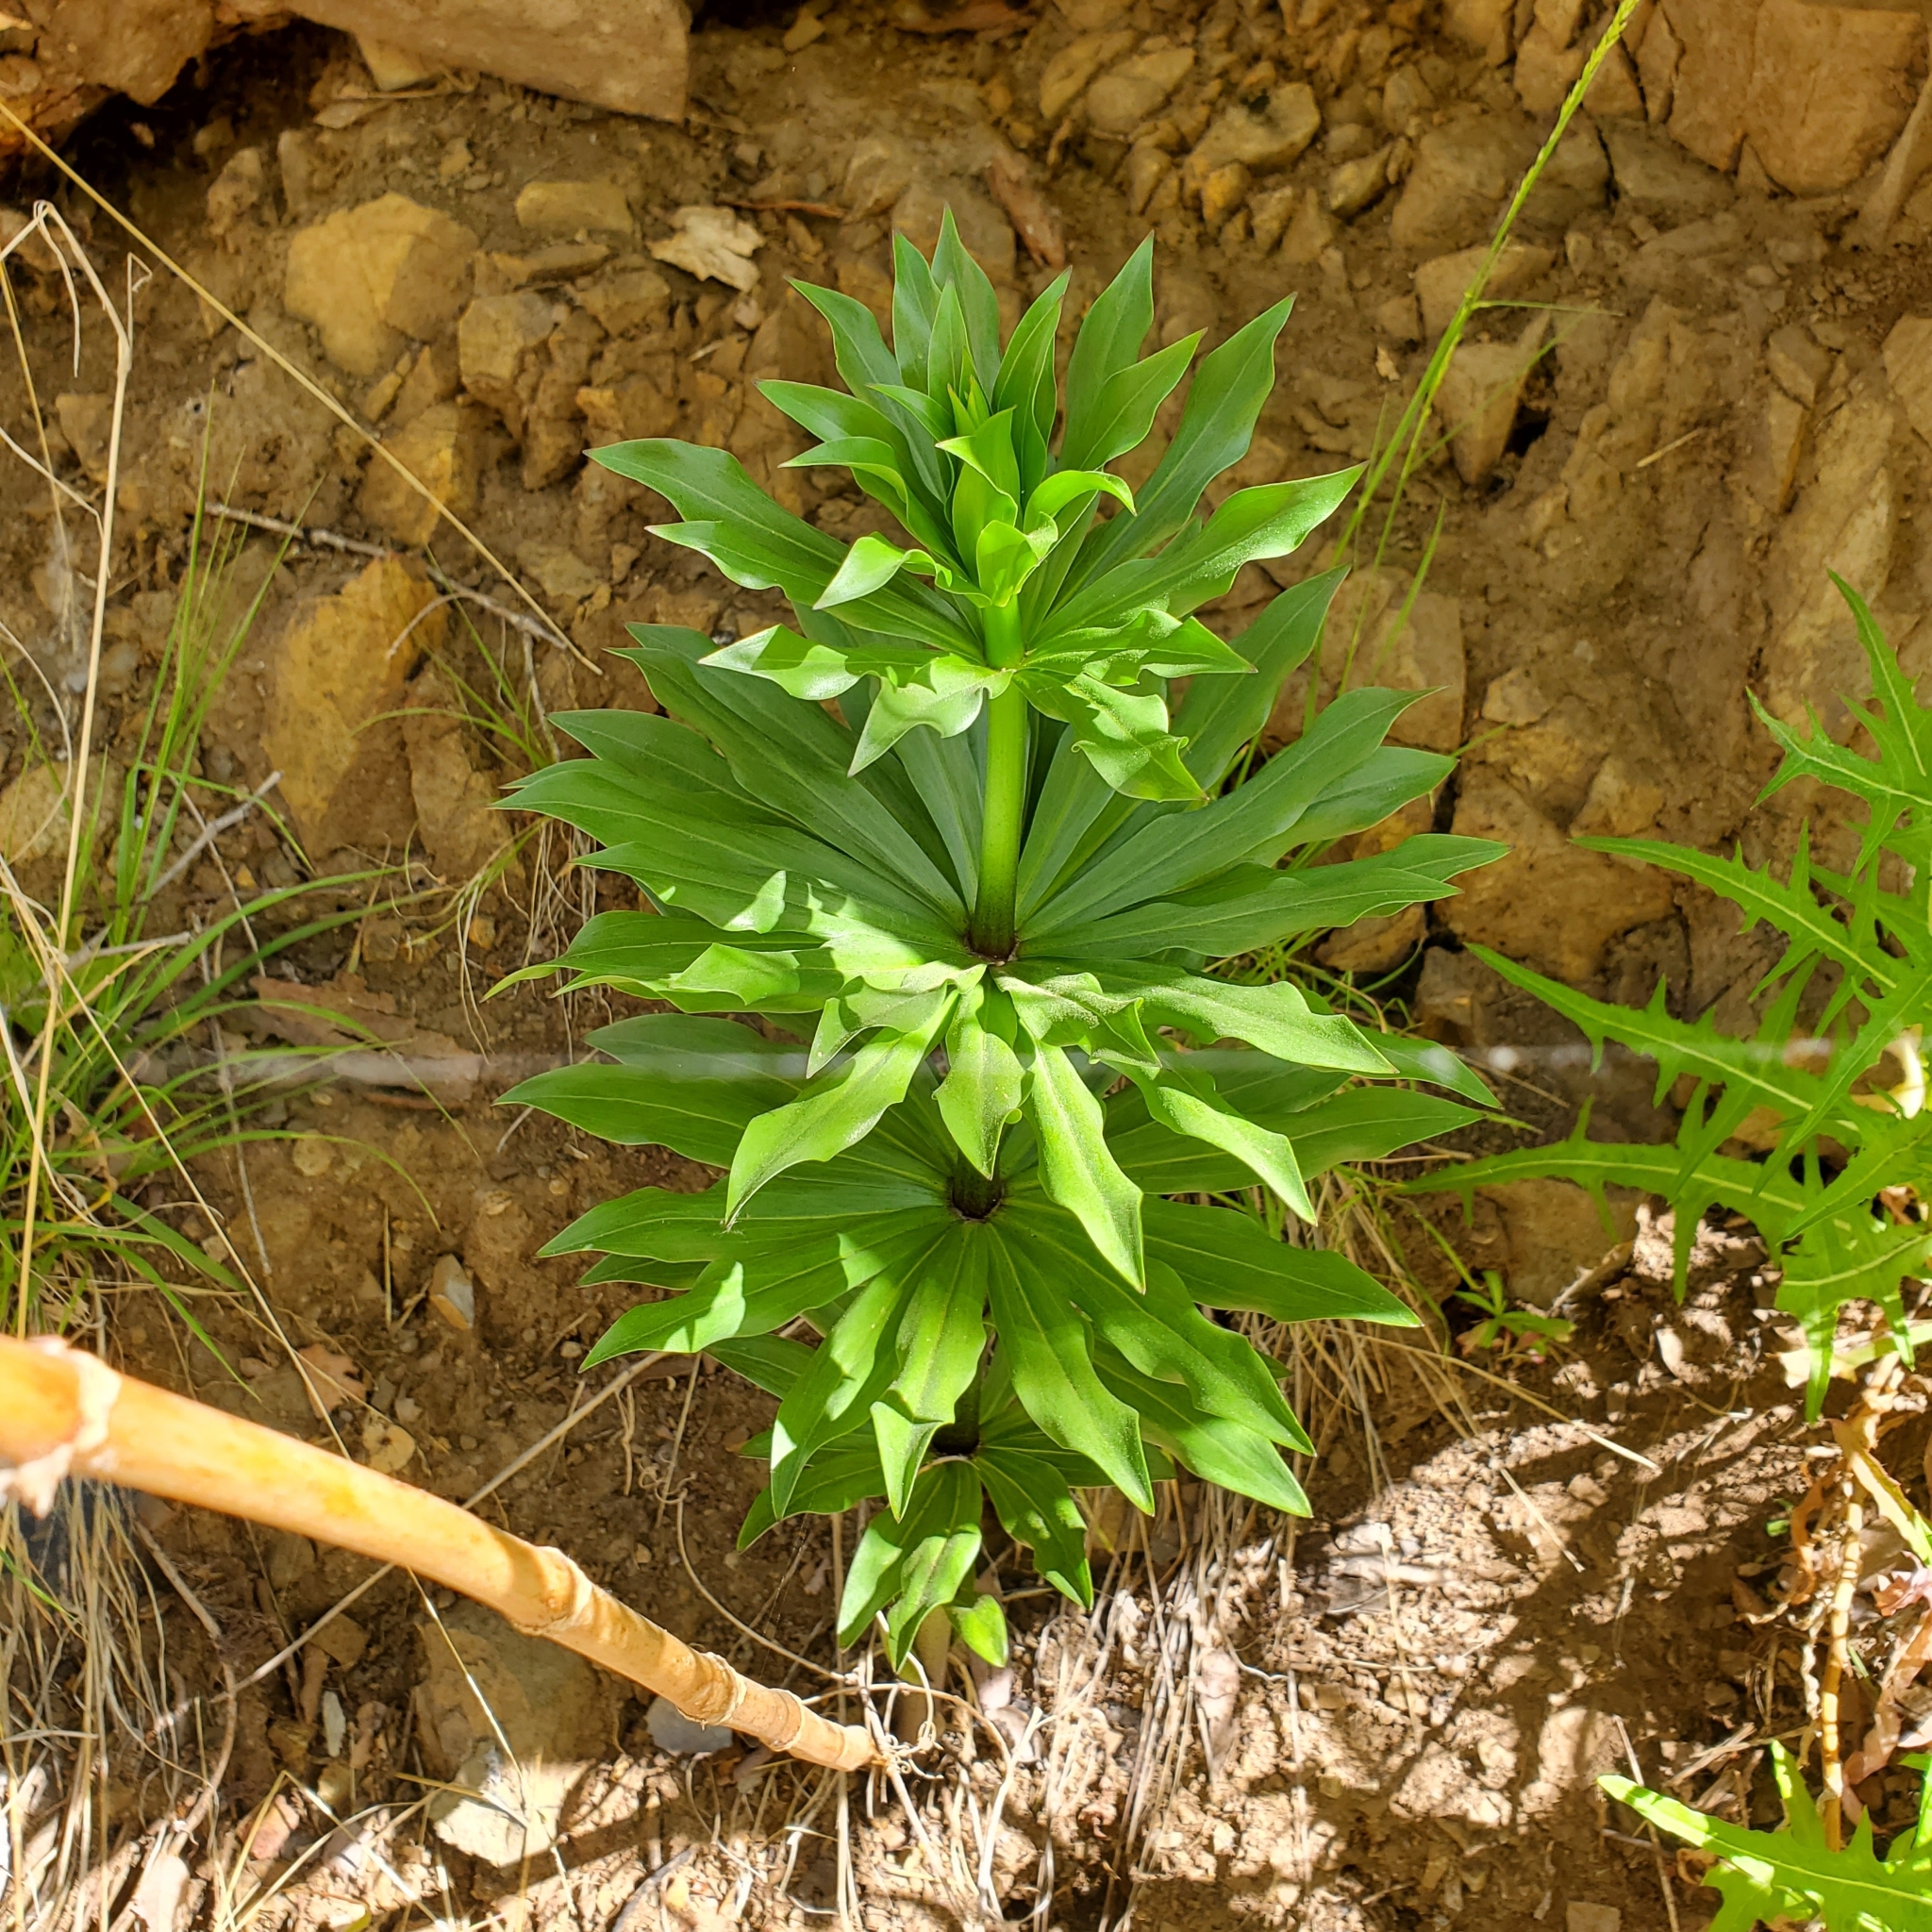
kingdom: Plantae
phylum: Tracheophyta
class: Liliopsida
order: Liliales
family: Liliaceae
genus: Lilium
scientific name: Lilium humboldtii
